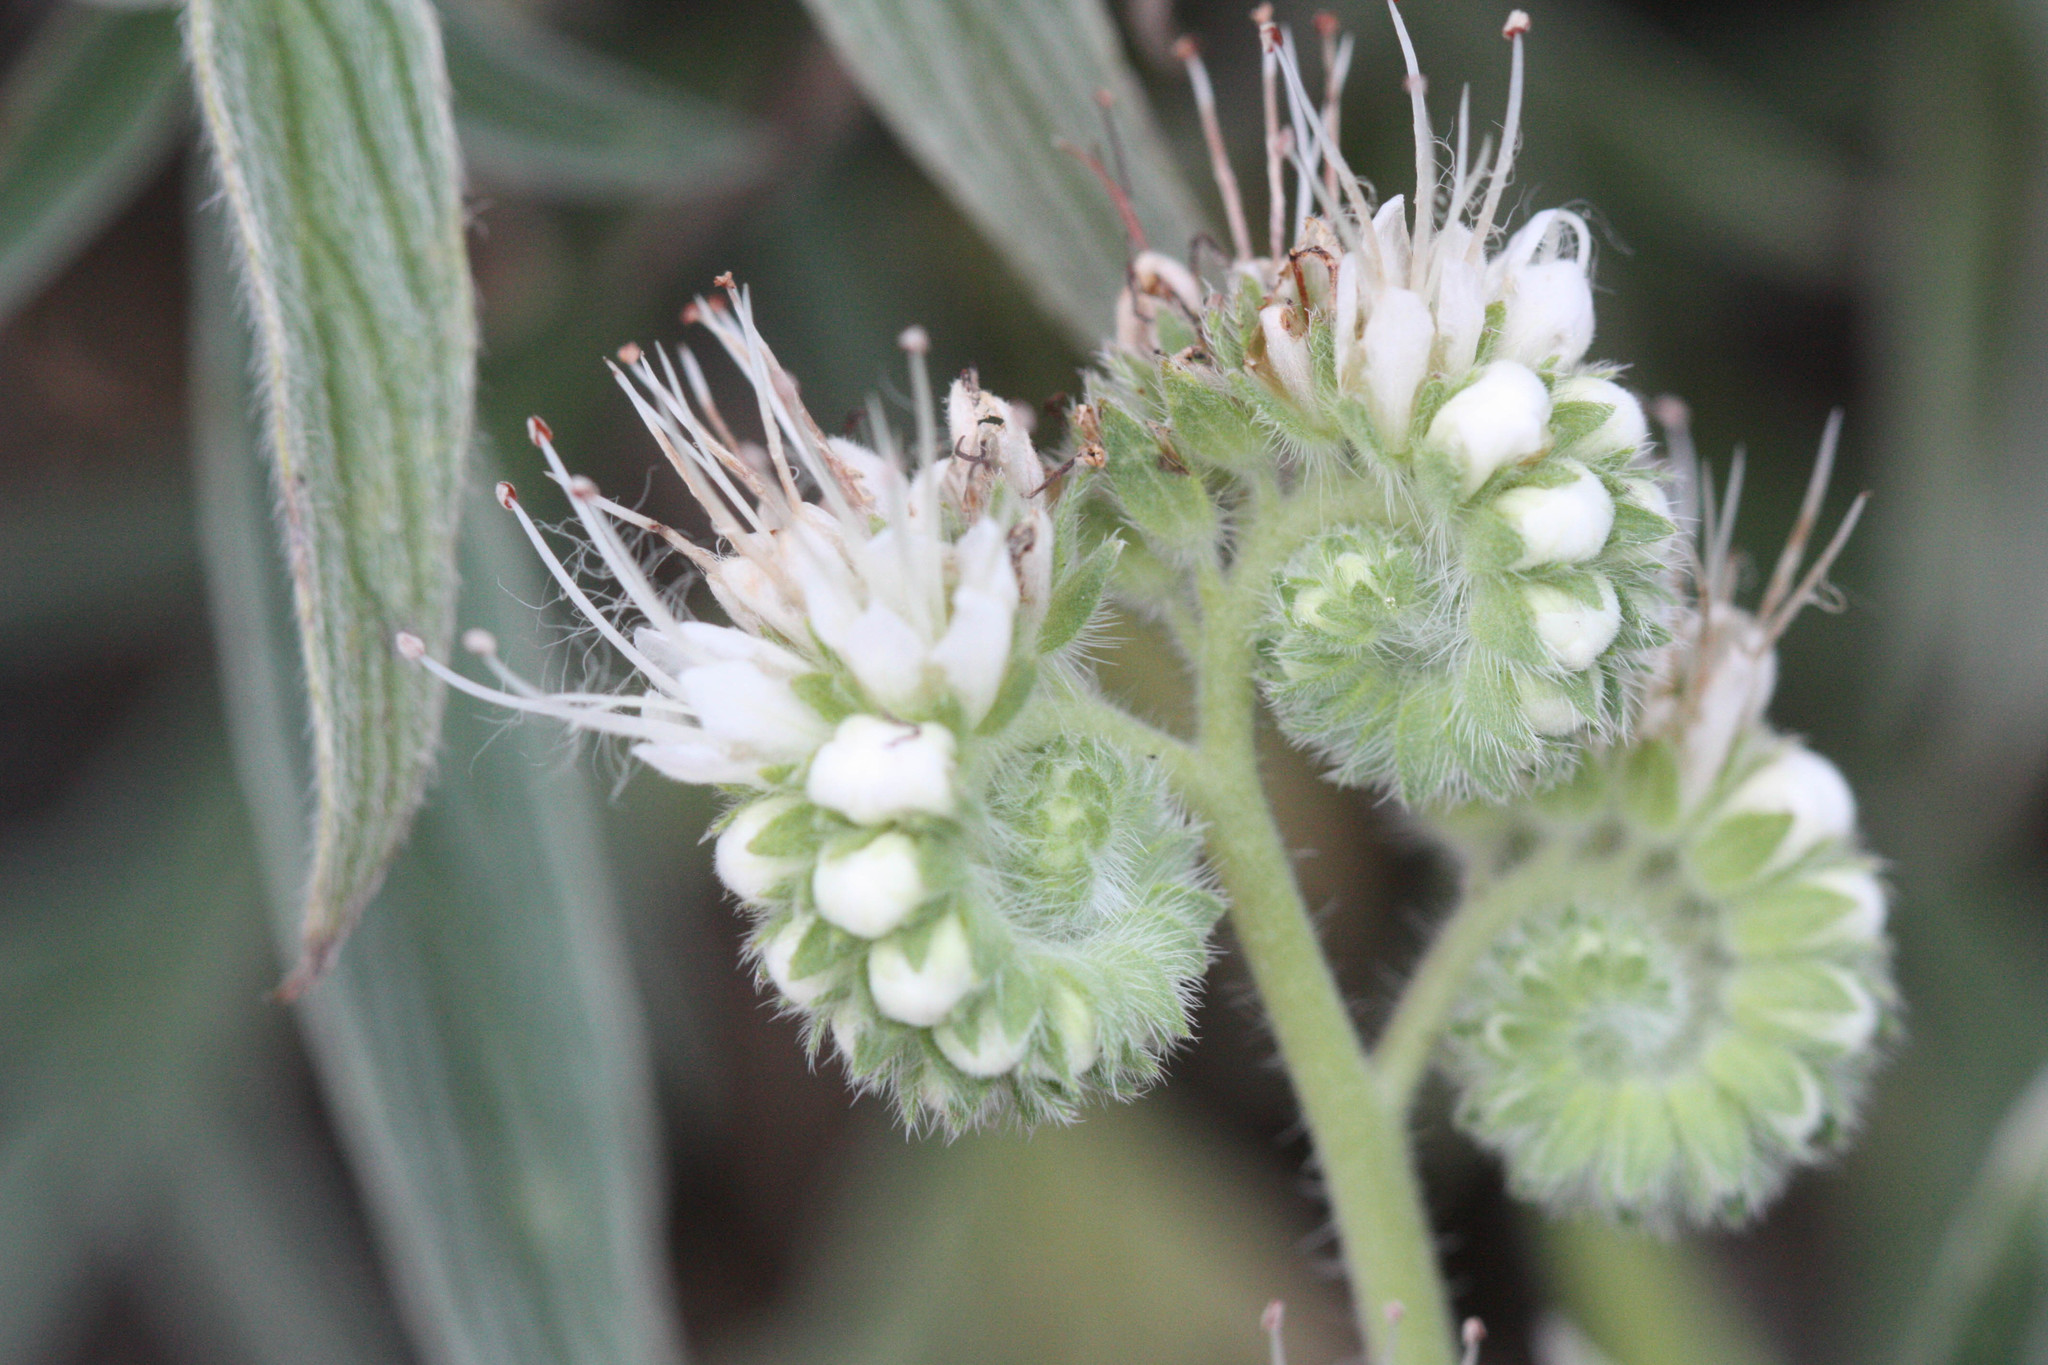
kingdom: Plantae
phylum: Tracheophyta
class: Magnoliopsida
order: Boraginales
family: Hydrophyllaceae
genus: Phacelia
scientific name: Phacelia imbricata
